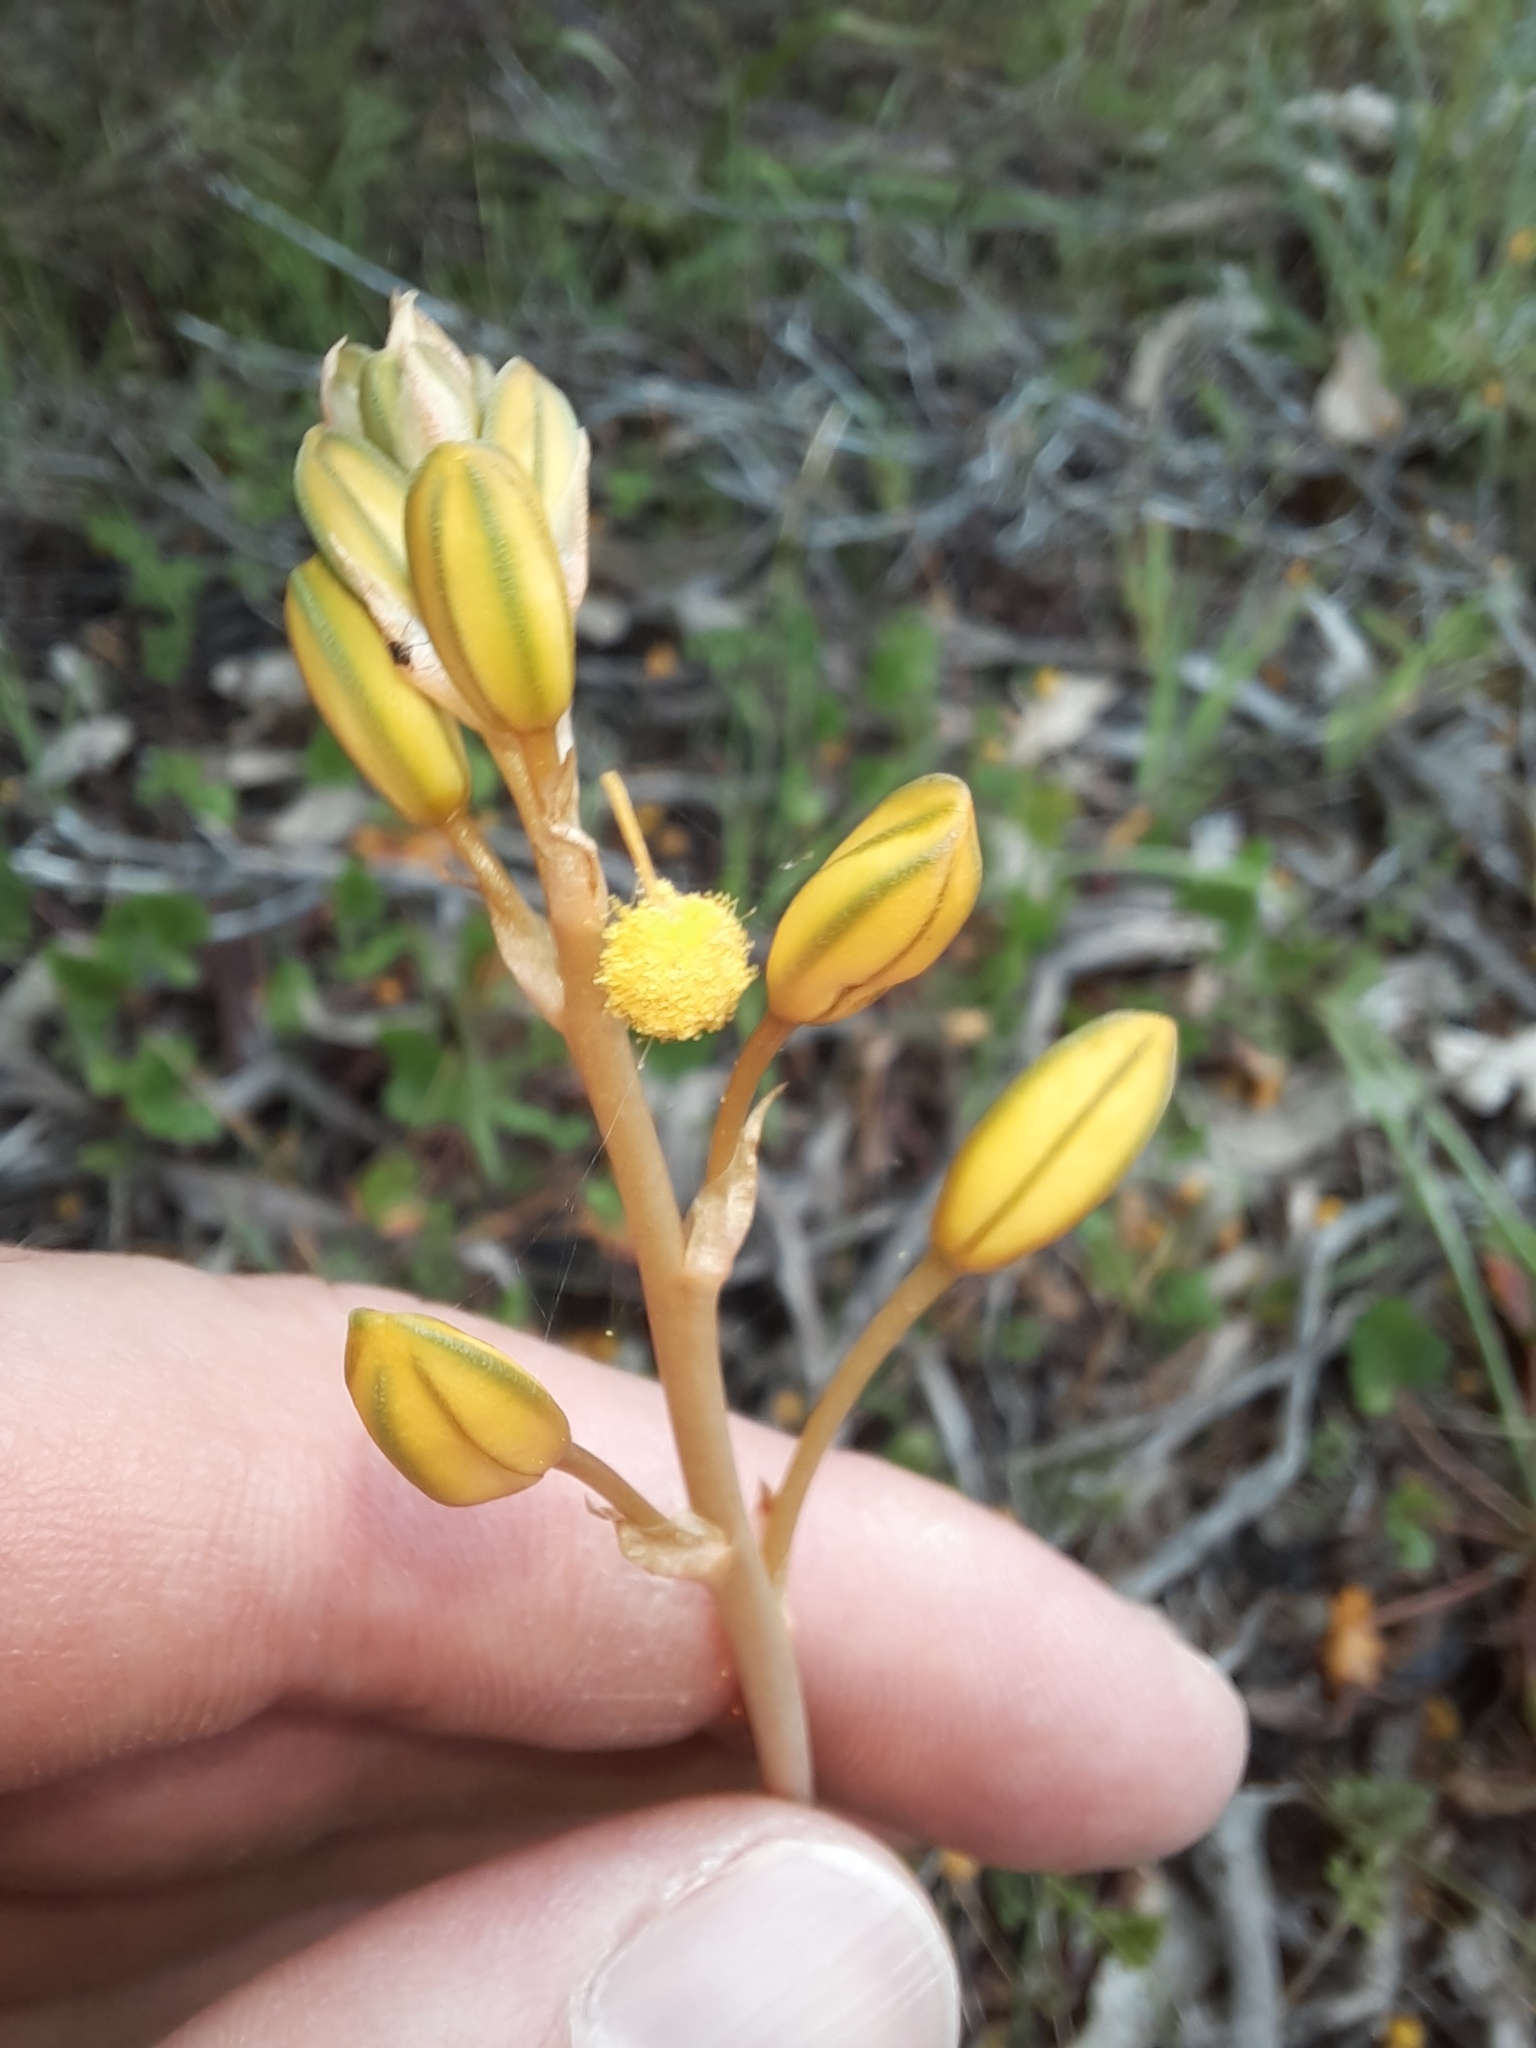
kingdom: Plantae
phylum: Tracheophyta
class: Liliopsida
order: Asparagales
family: Asphodelaceae
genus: Bulbine
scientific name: Bulbine bulbosa
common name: Golden-lily
